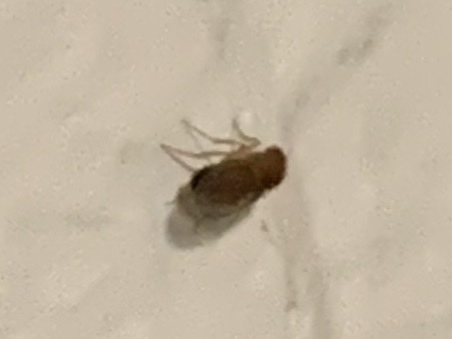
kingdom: Animalia
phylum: Arthropoda
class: Insecta
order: Diptera
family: Drosophilidae
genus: Sophophora
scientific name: Sophophora
